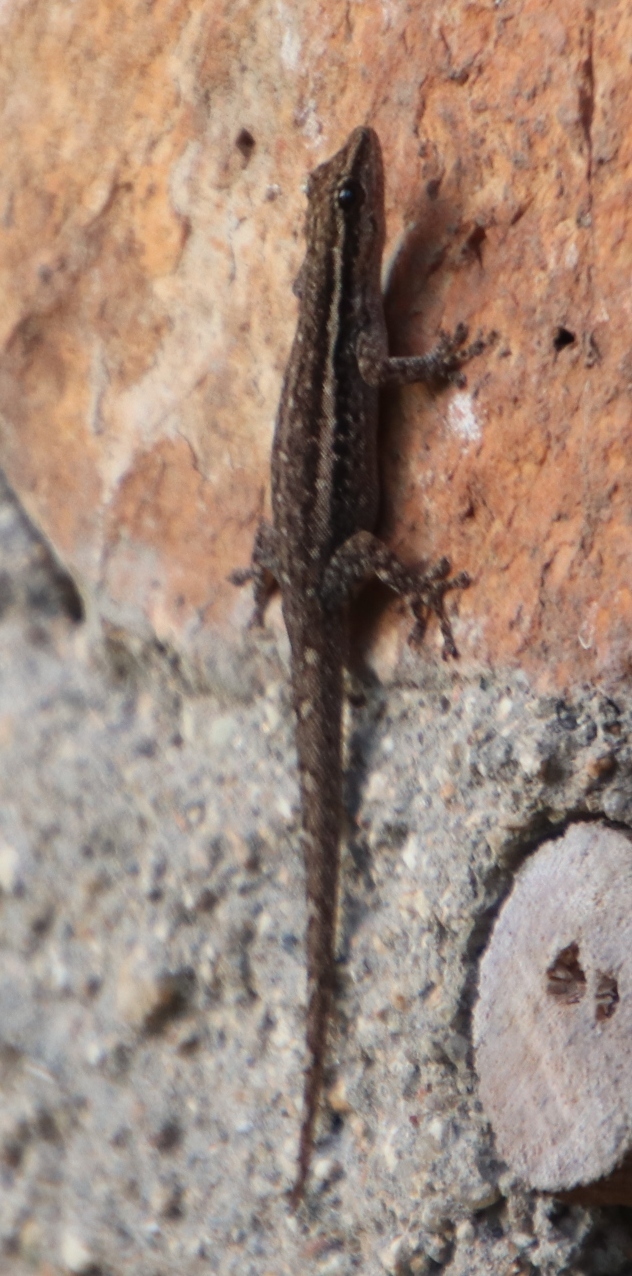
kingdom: Animalia
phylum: Chordata
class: Squamata
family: Gekkonidae
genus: Lygodactylus
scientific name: Lygodactylus capensis
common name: Cape dwarf gecko
